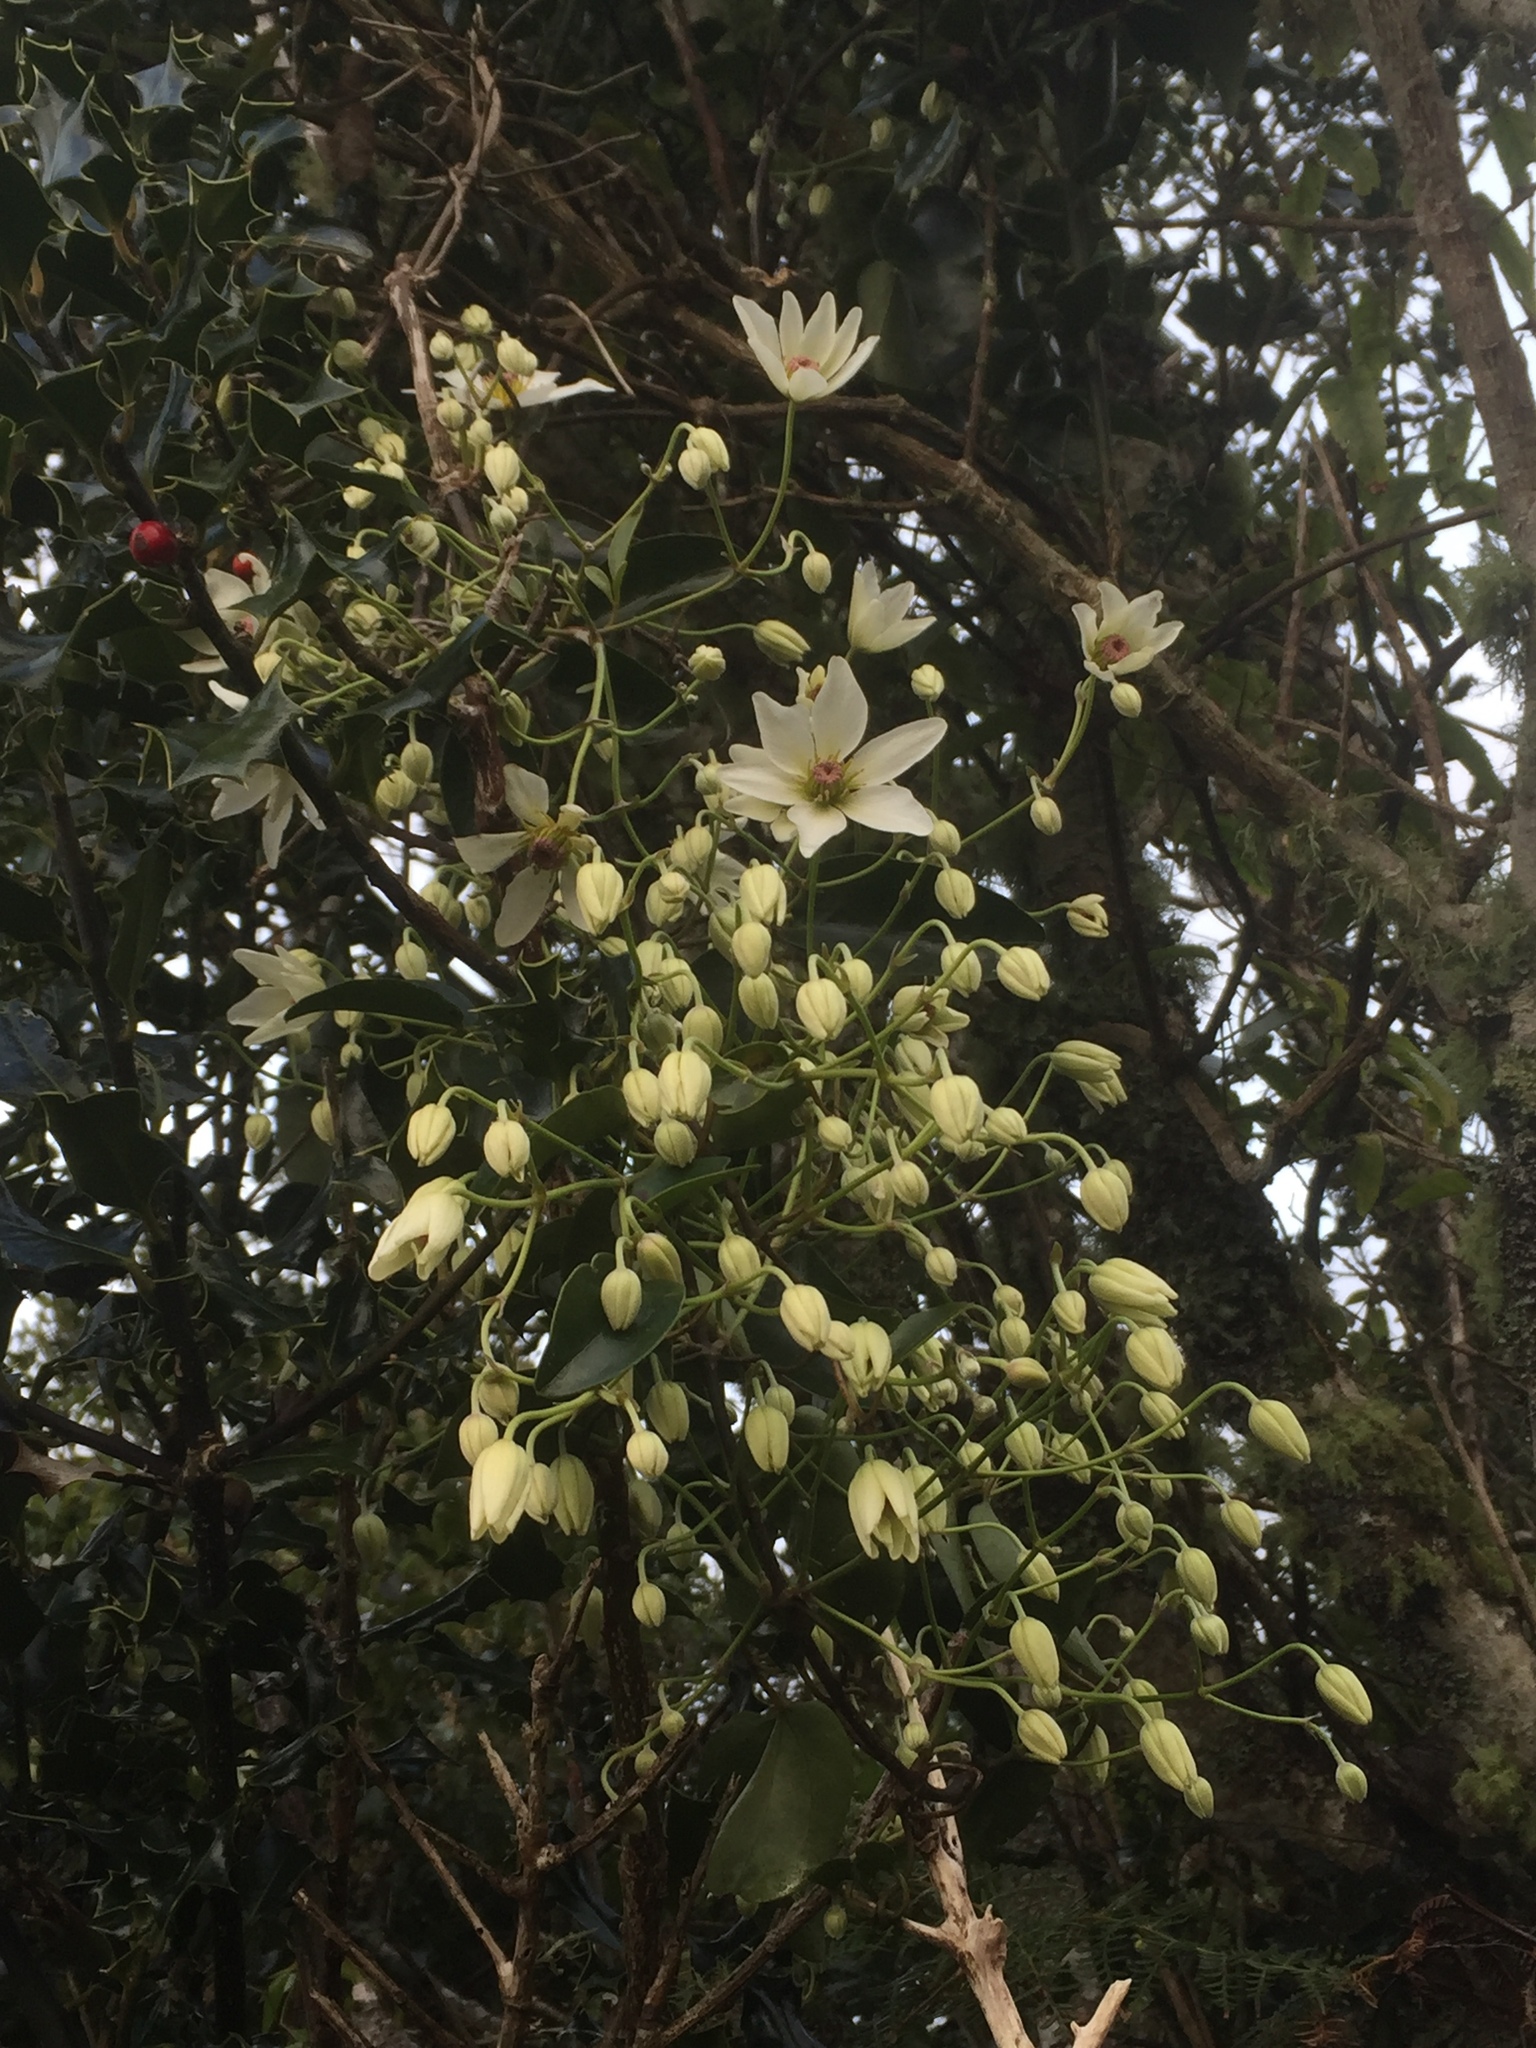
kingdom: Plantae
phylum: Tracheophyta
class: Magnoliopsida
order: Ranunculales
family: Ranunculaceae
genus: Clematis
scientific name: Clematis paniculata
